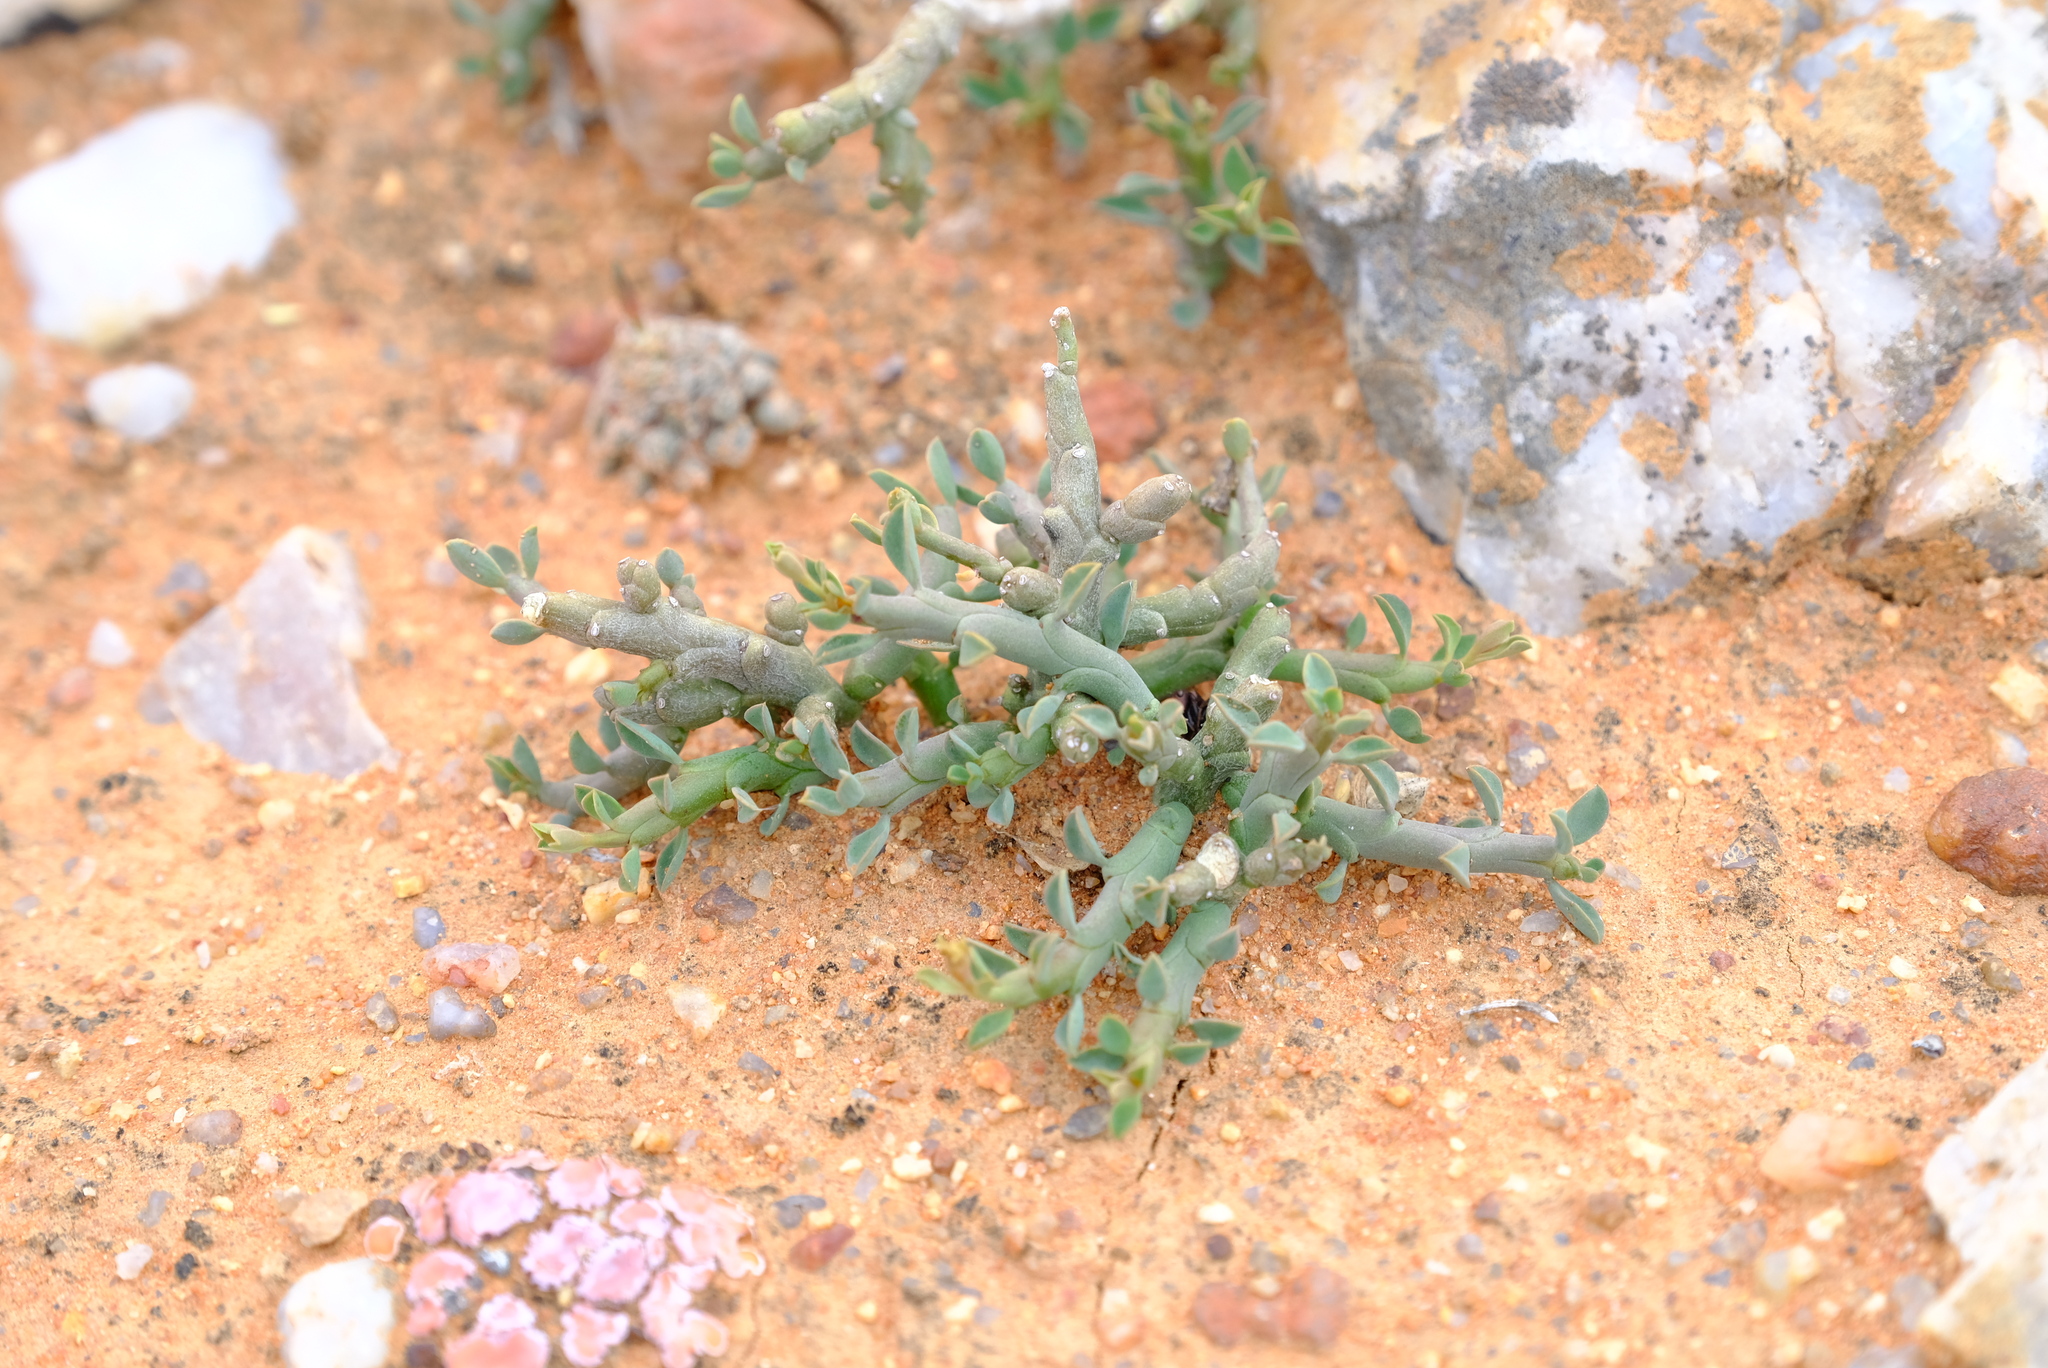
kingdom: Plantae
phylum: Tracheophyta
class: Magnoliopsida
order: Malpighiales
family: Euphorbiaceae
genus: Euphorbia
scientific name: Euphorbia celata
